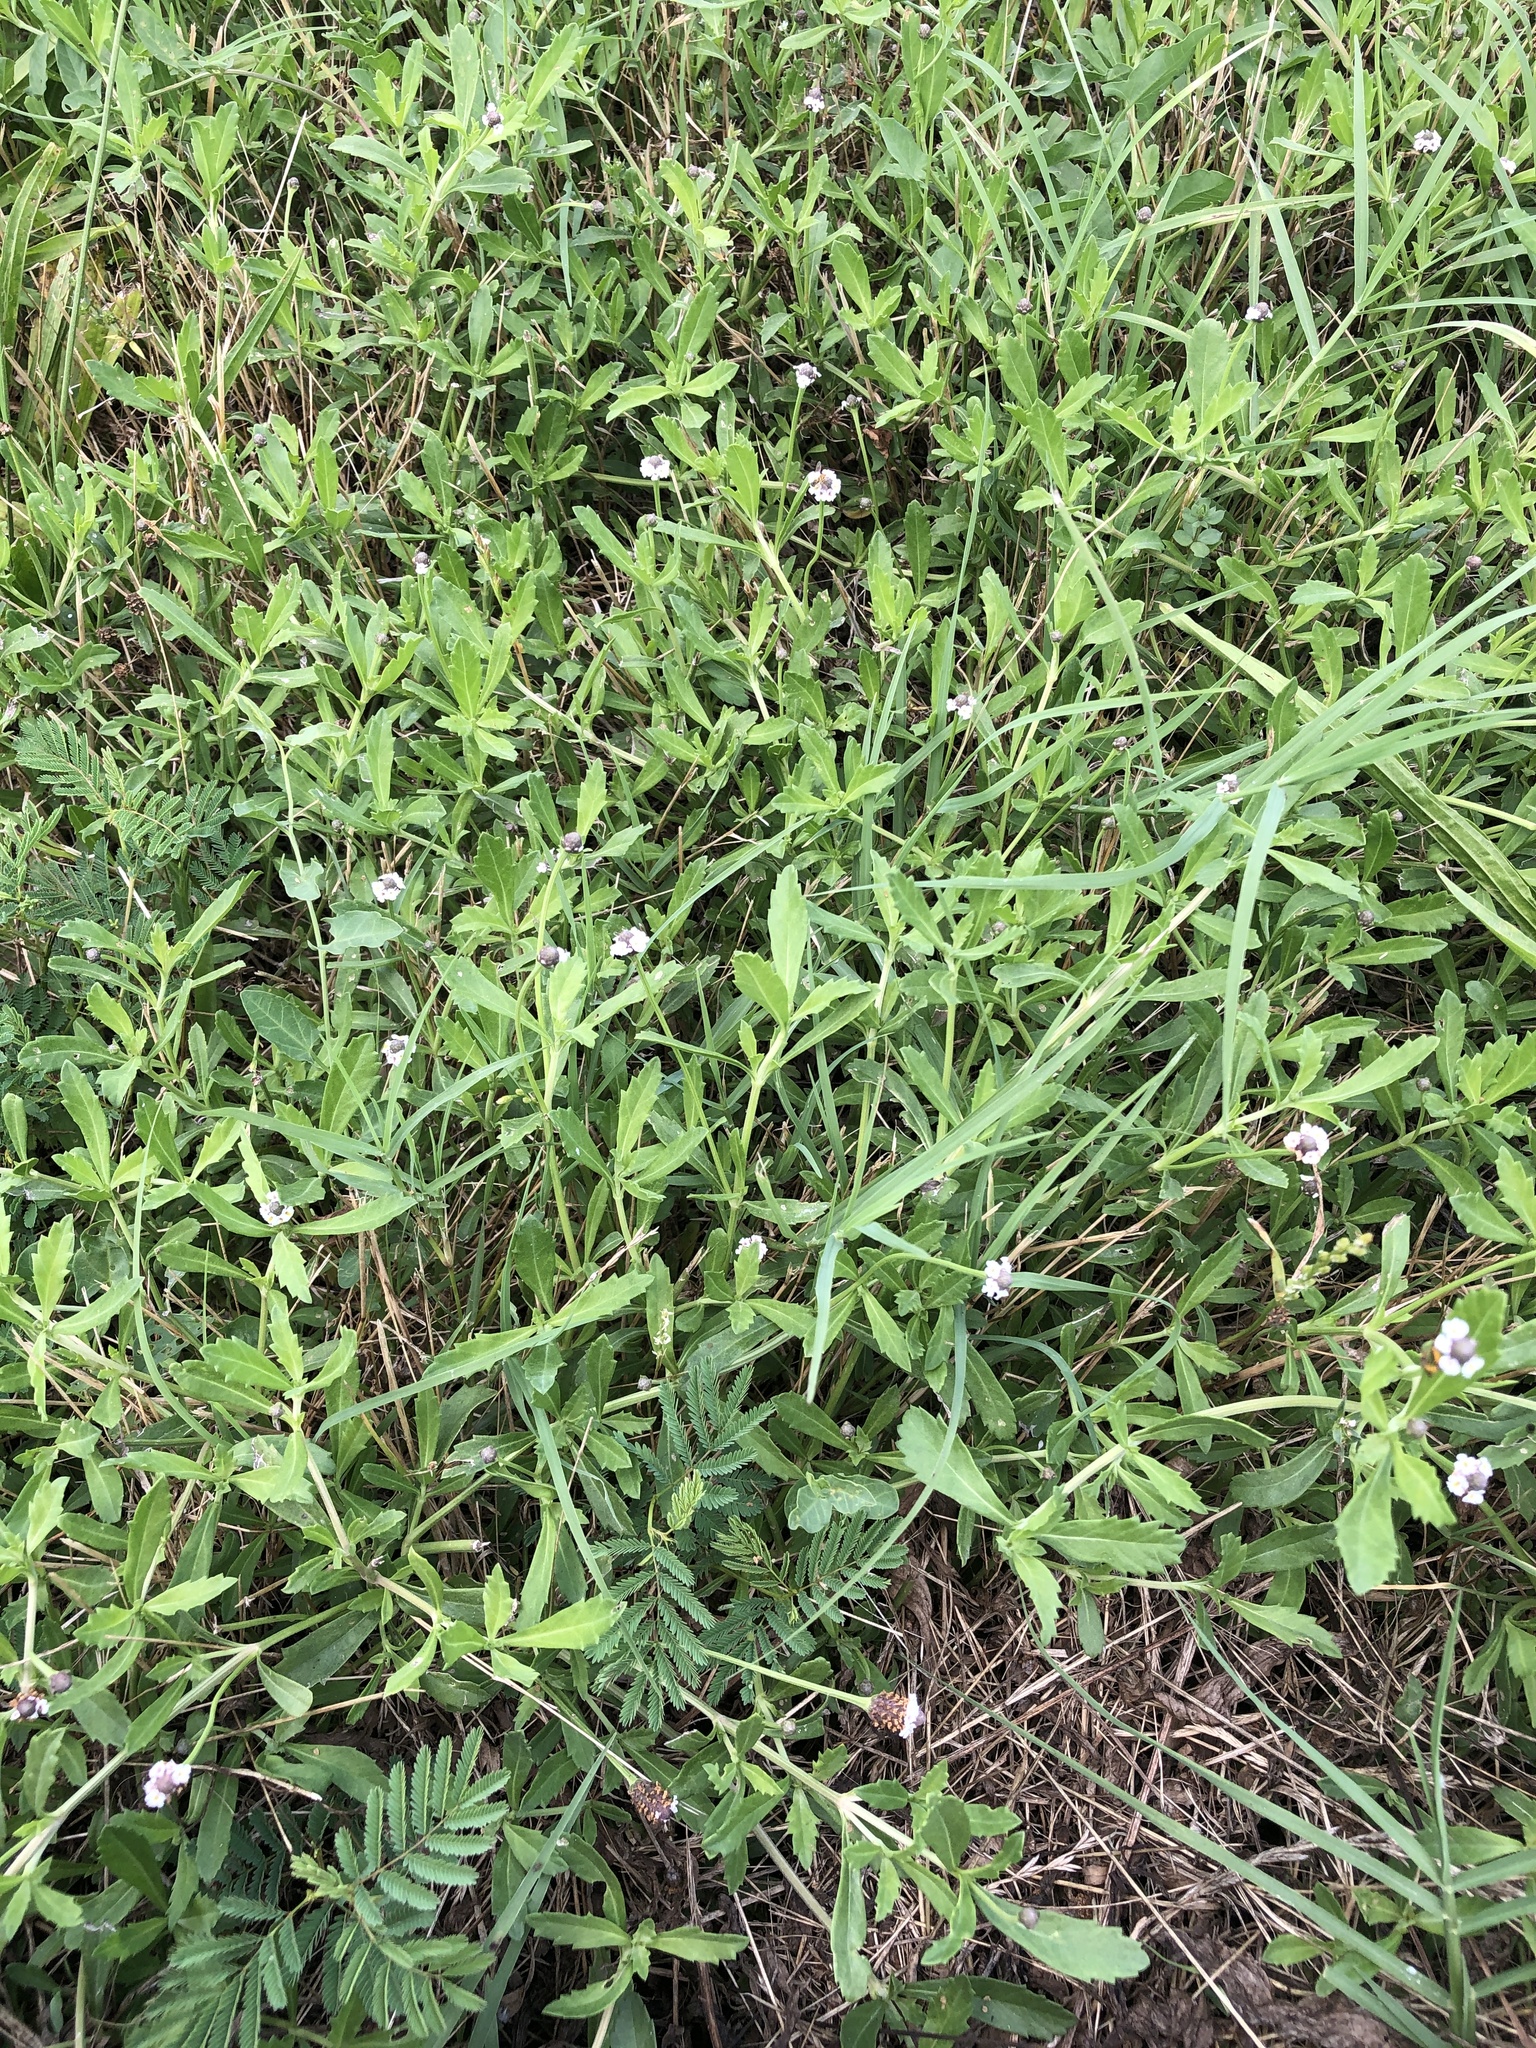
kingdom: Plantae
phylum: Tracheophyta
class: Magnoliopsida
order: Lamiales
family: Verbenaceae
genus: Phyla
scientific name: Phyla nodiflora
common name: Frogfruit
